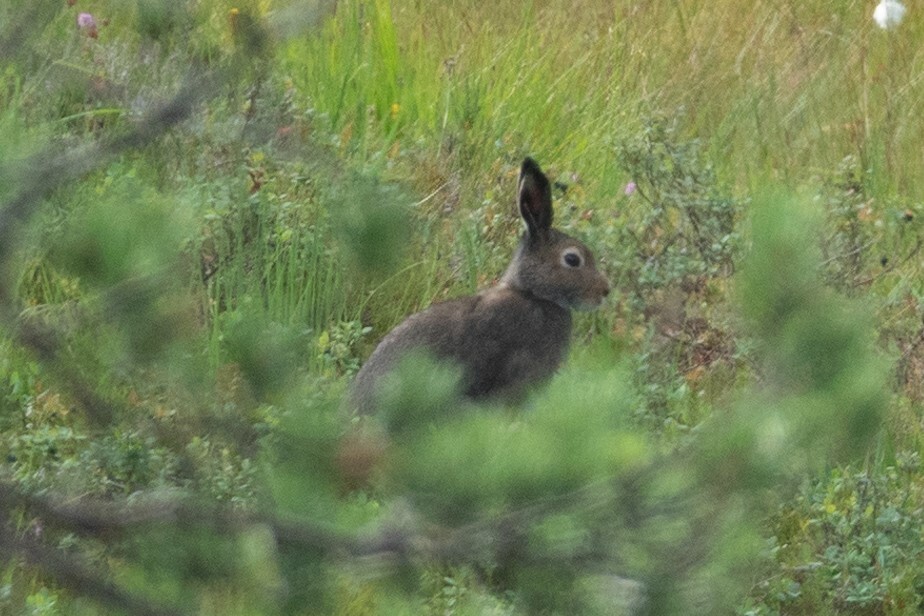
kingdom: Animalia
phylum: Chordata
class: Mammalia
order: Lagomorpha
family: Leporidae
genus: Lepus
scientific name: Lepus timidus
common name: Mountain hare
